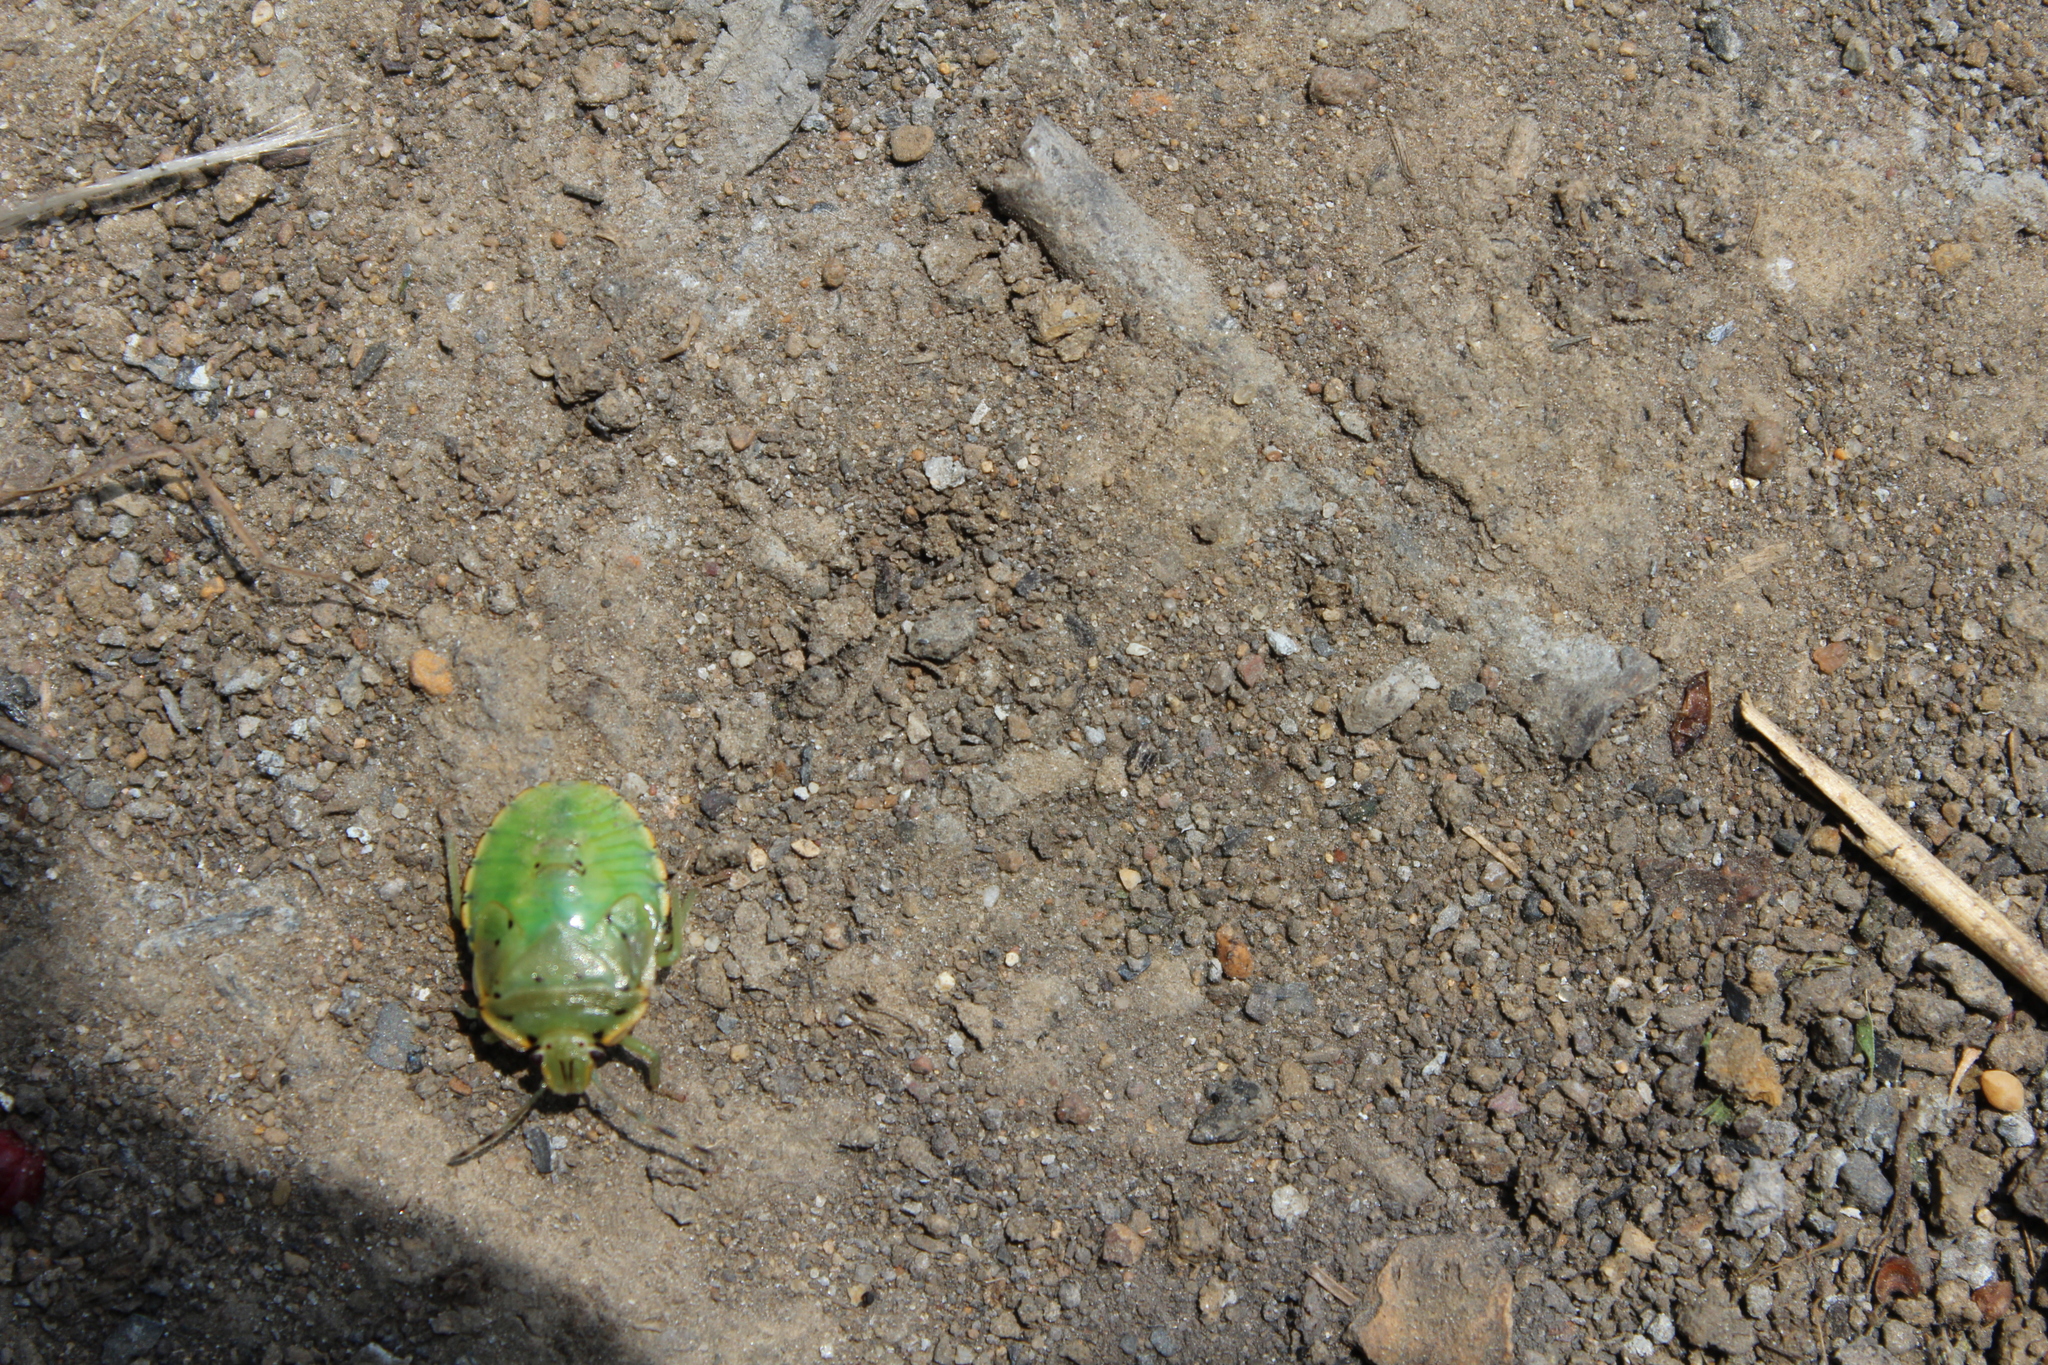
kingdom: Animalia
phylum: Arthropoda
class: Insecta
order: Hemiptera
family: Pentatomidae
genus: Chinavia
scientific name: Chinavia hilaris
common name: Green stink bug
